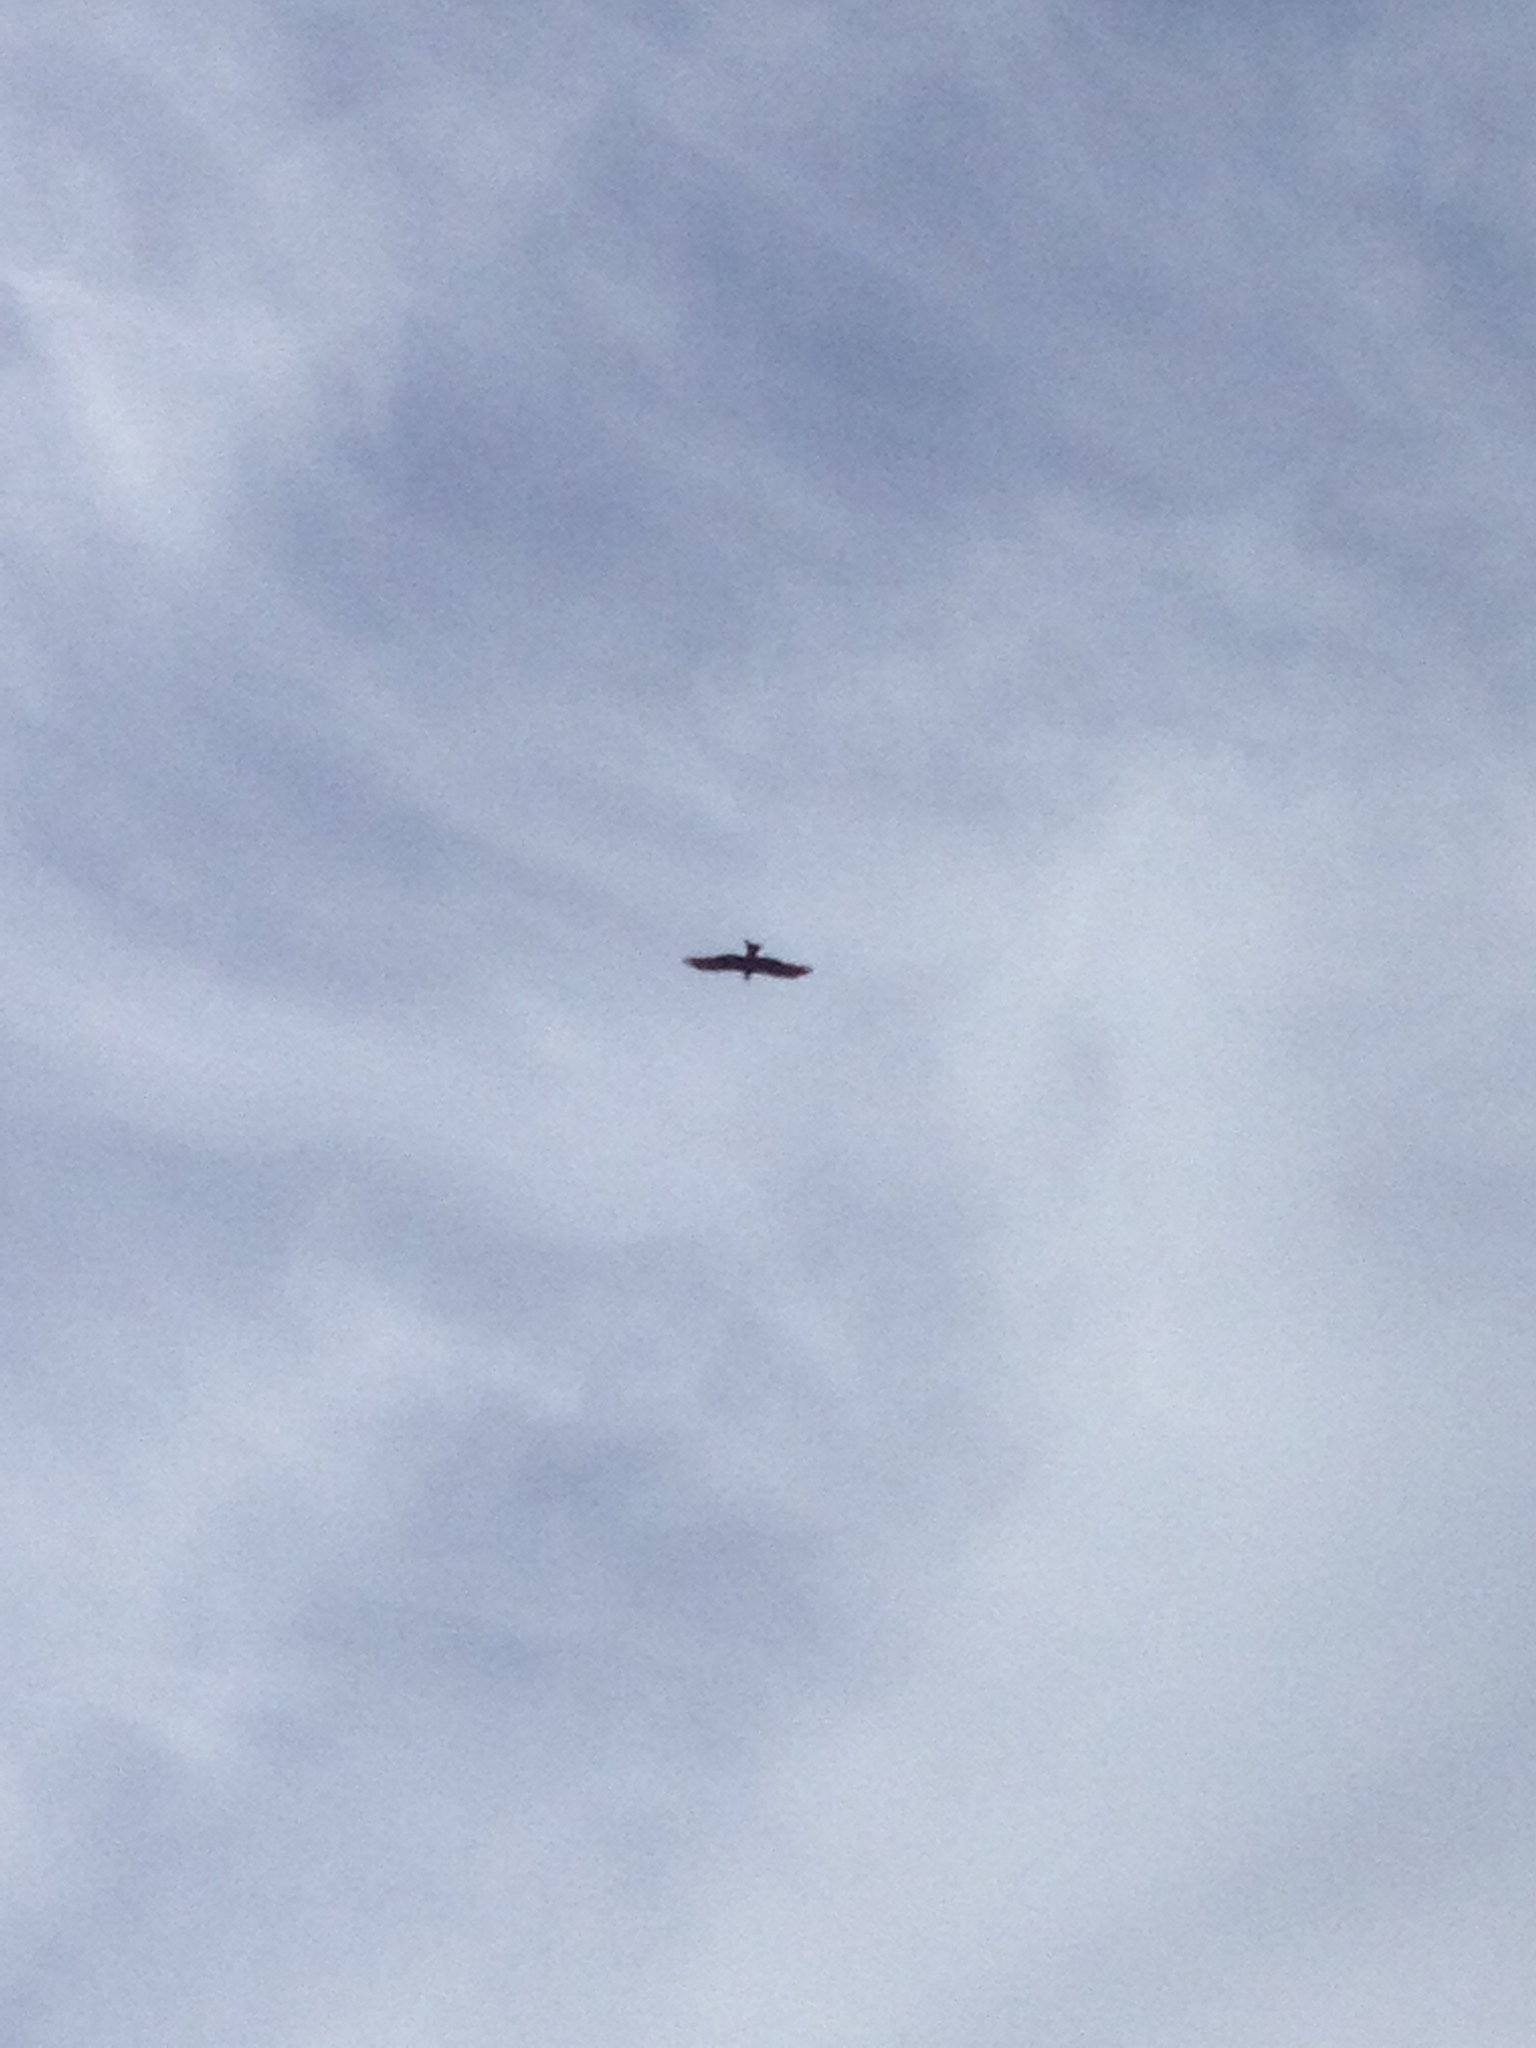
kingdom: Animalia
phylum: Chordata
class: Aves
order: Accipitriformes
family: Accipitridae
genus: Milvus
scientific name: Milvus migrans
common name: Black kite
